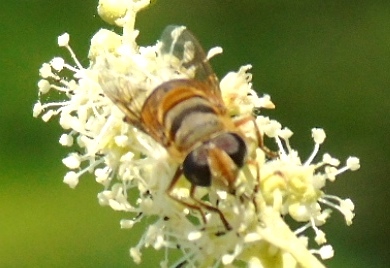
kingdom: Animalia
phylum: Arthropoda
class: Insecta
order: Diptera
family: Syrphidae
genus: Palpada
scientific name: Palpada
